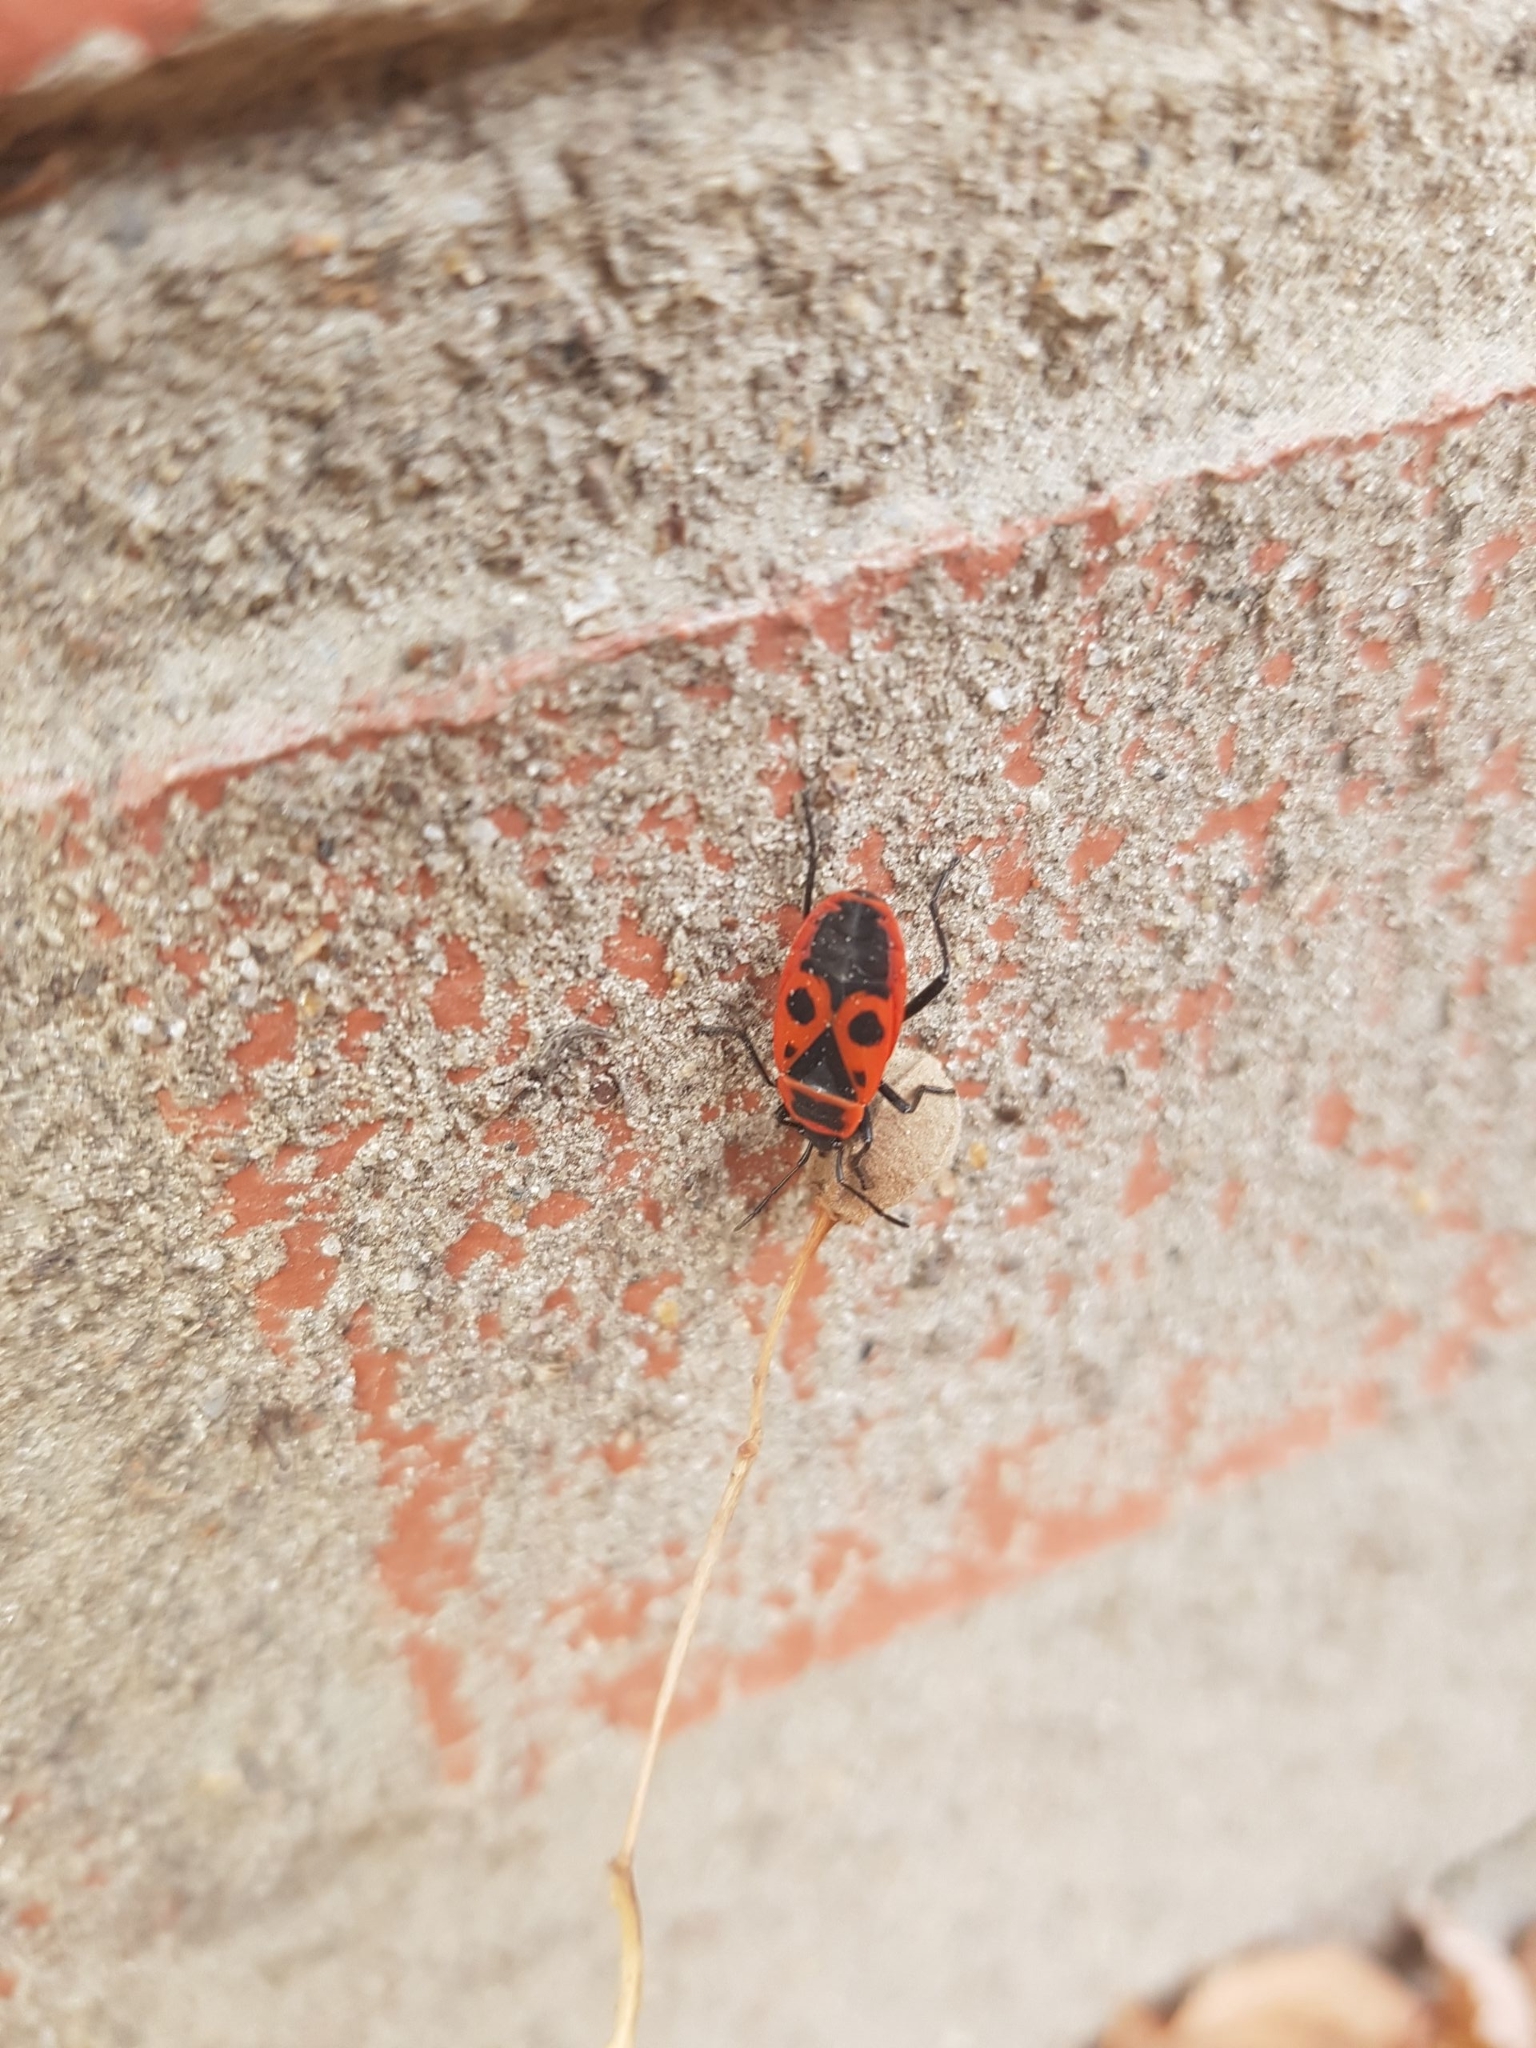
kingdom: Animalia
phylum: Arthropoda
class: Insecta
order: Hemiptera
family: Pyrrhocoridae
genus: Pyrrhocoris
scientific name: Pyrrhocoris apterus
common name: Firebug
